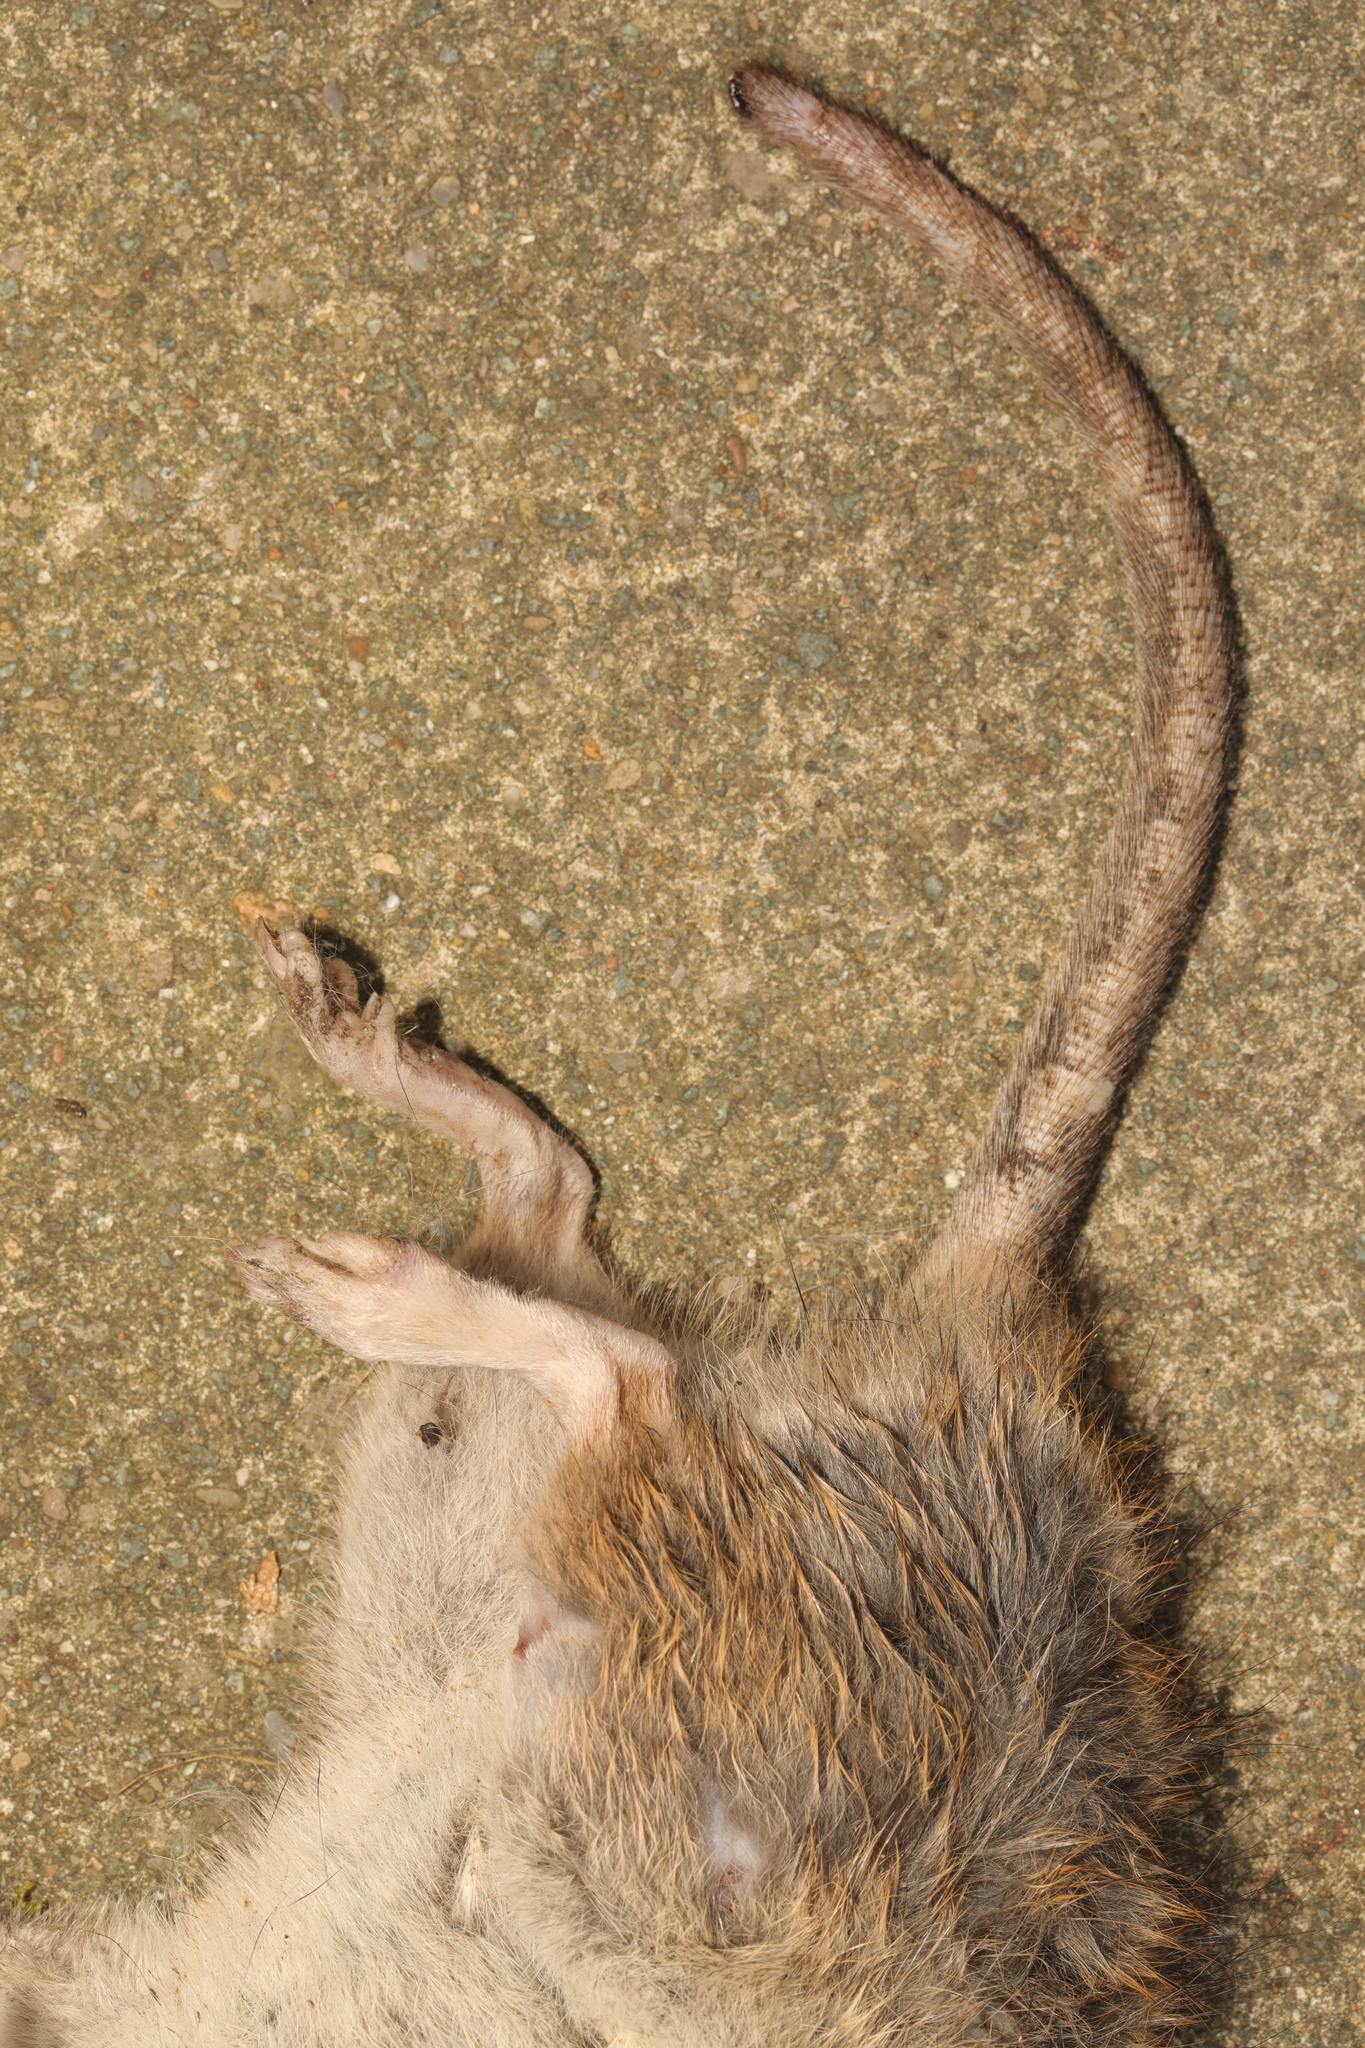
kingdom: Animalia
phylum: Chordata
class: Mammalia
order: Rodentia
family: Muridae
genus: Rattus
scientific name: Rattus norvegicus
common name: Brown rat
